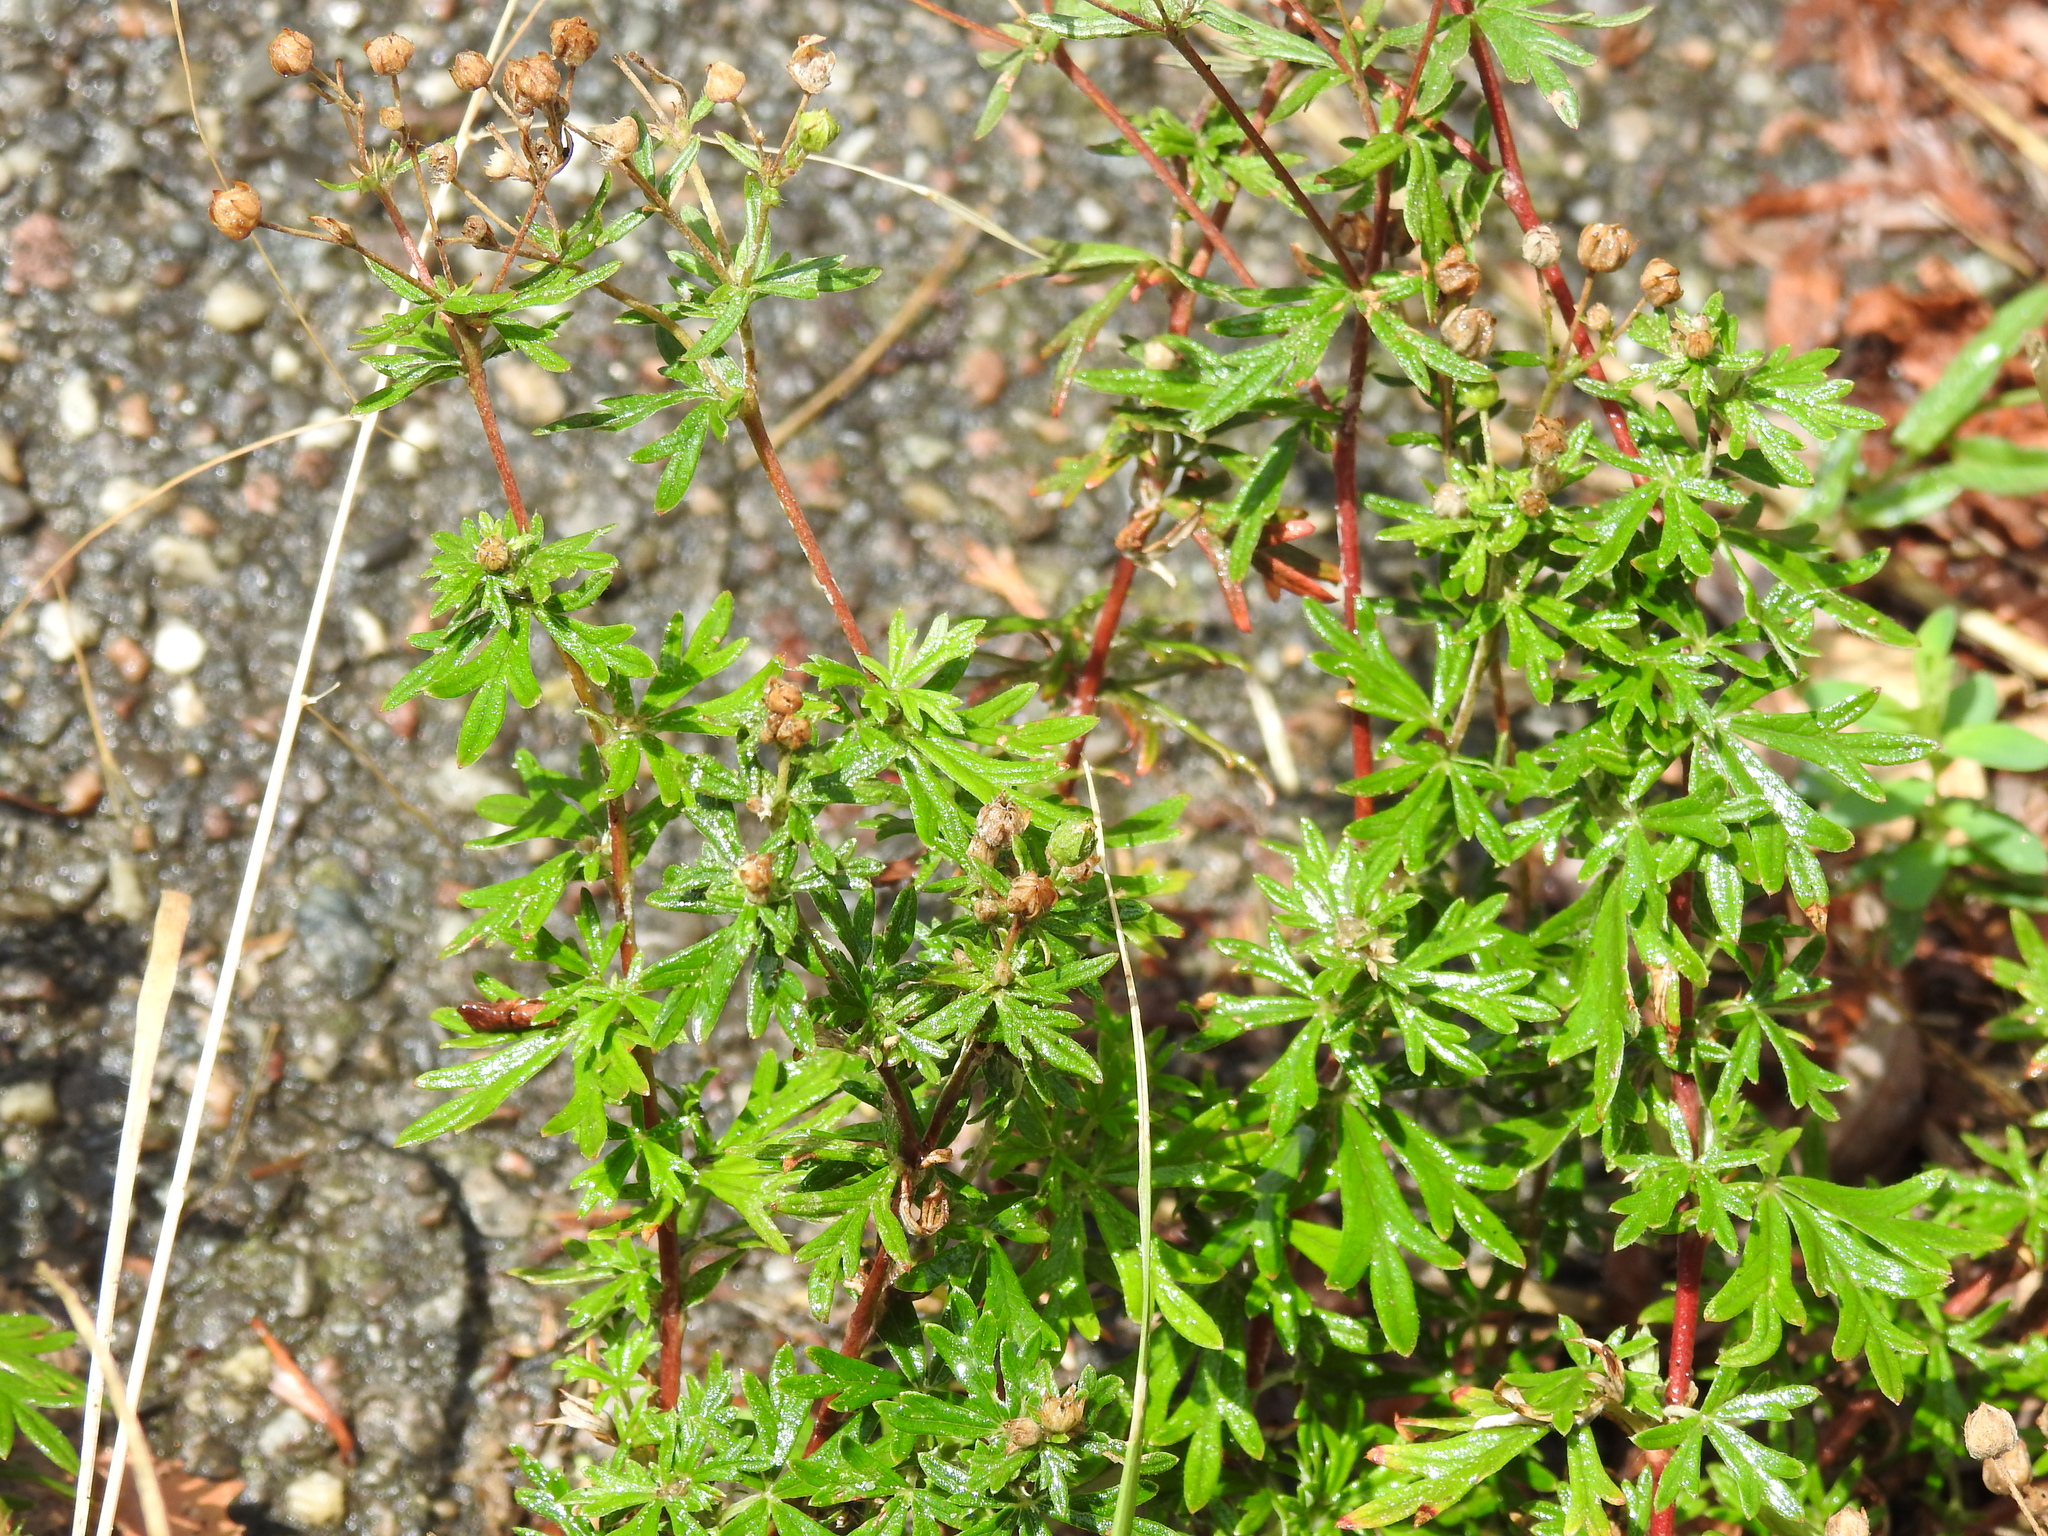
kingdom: Plantae
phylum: Tracheophyta
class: Magnoliopsida
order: Rosales
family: Rosaceae
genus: Potentilla
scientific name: Potentilla argentea
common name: Hoary cinquefoil
